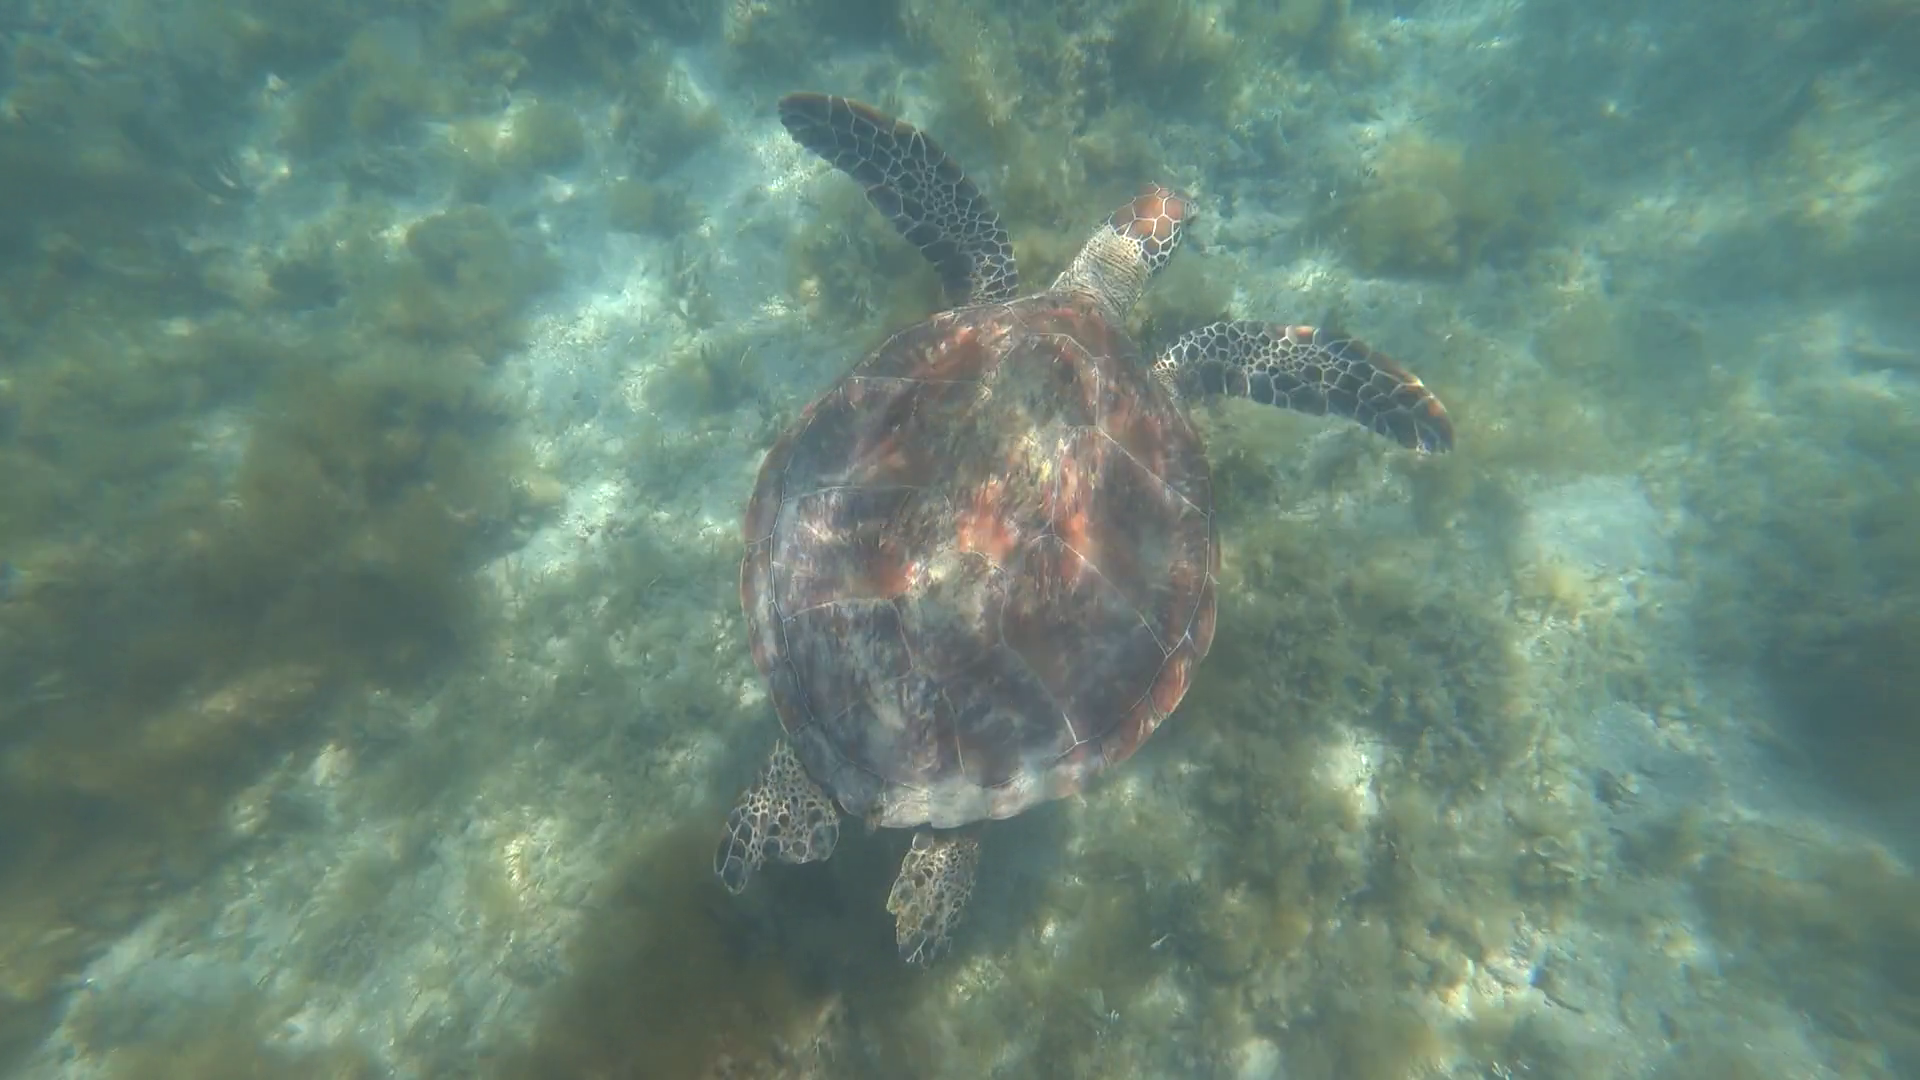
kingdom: Animalia
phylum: Chordata
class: Testudines
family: Cheloniidae
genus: Chelonia
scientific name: Chelonia mydas
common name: Green turtle
